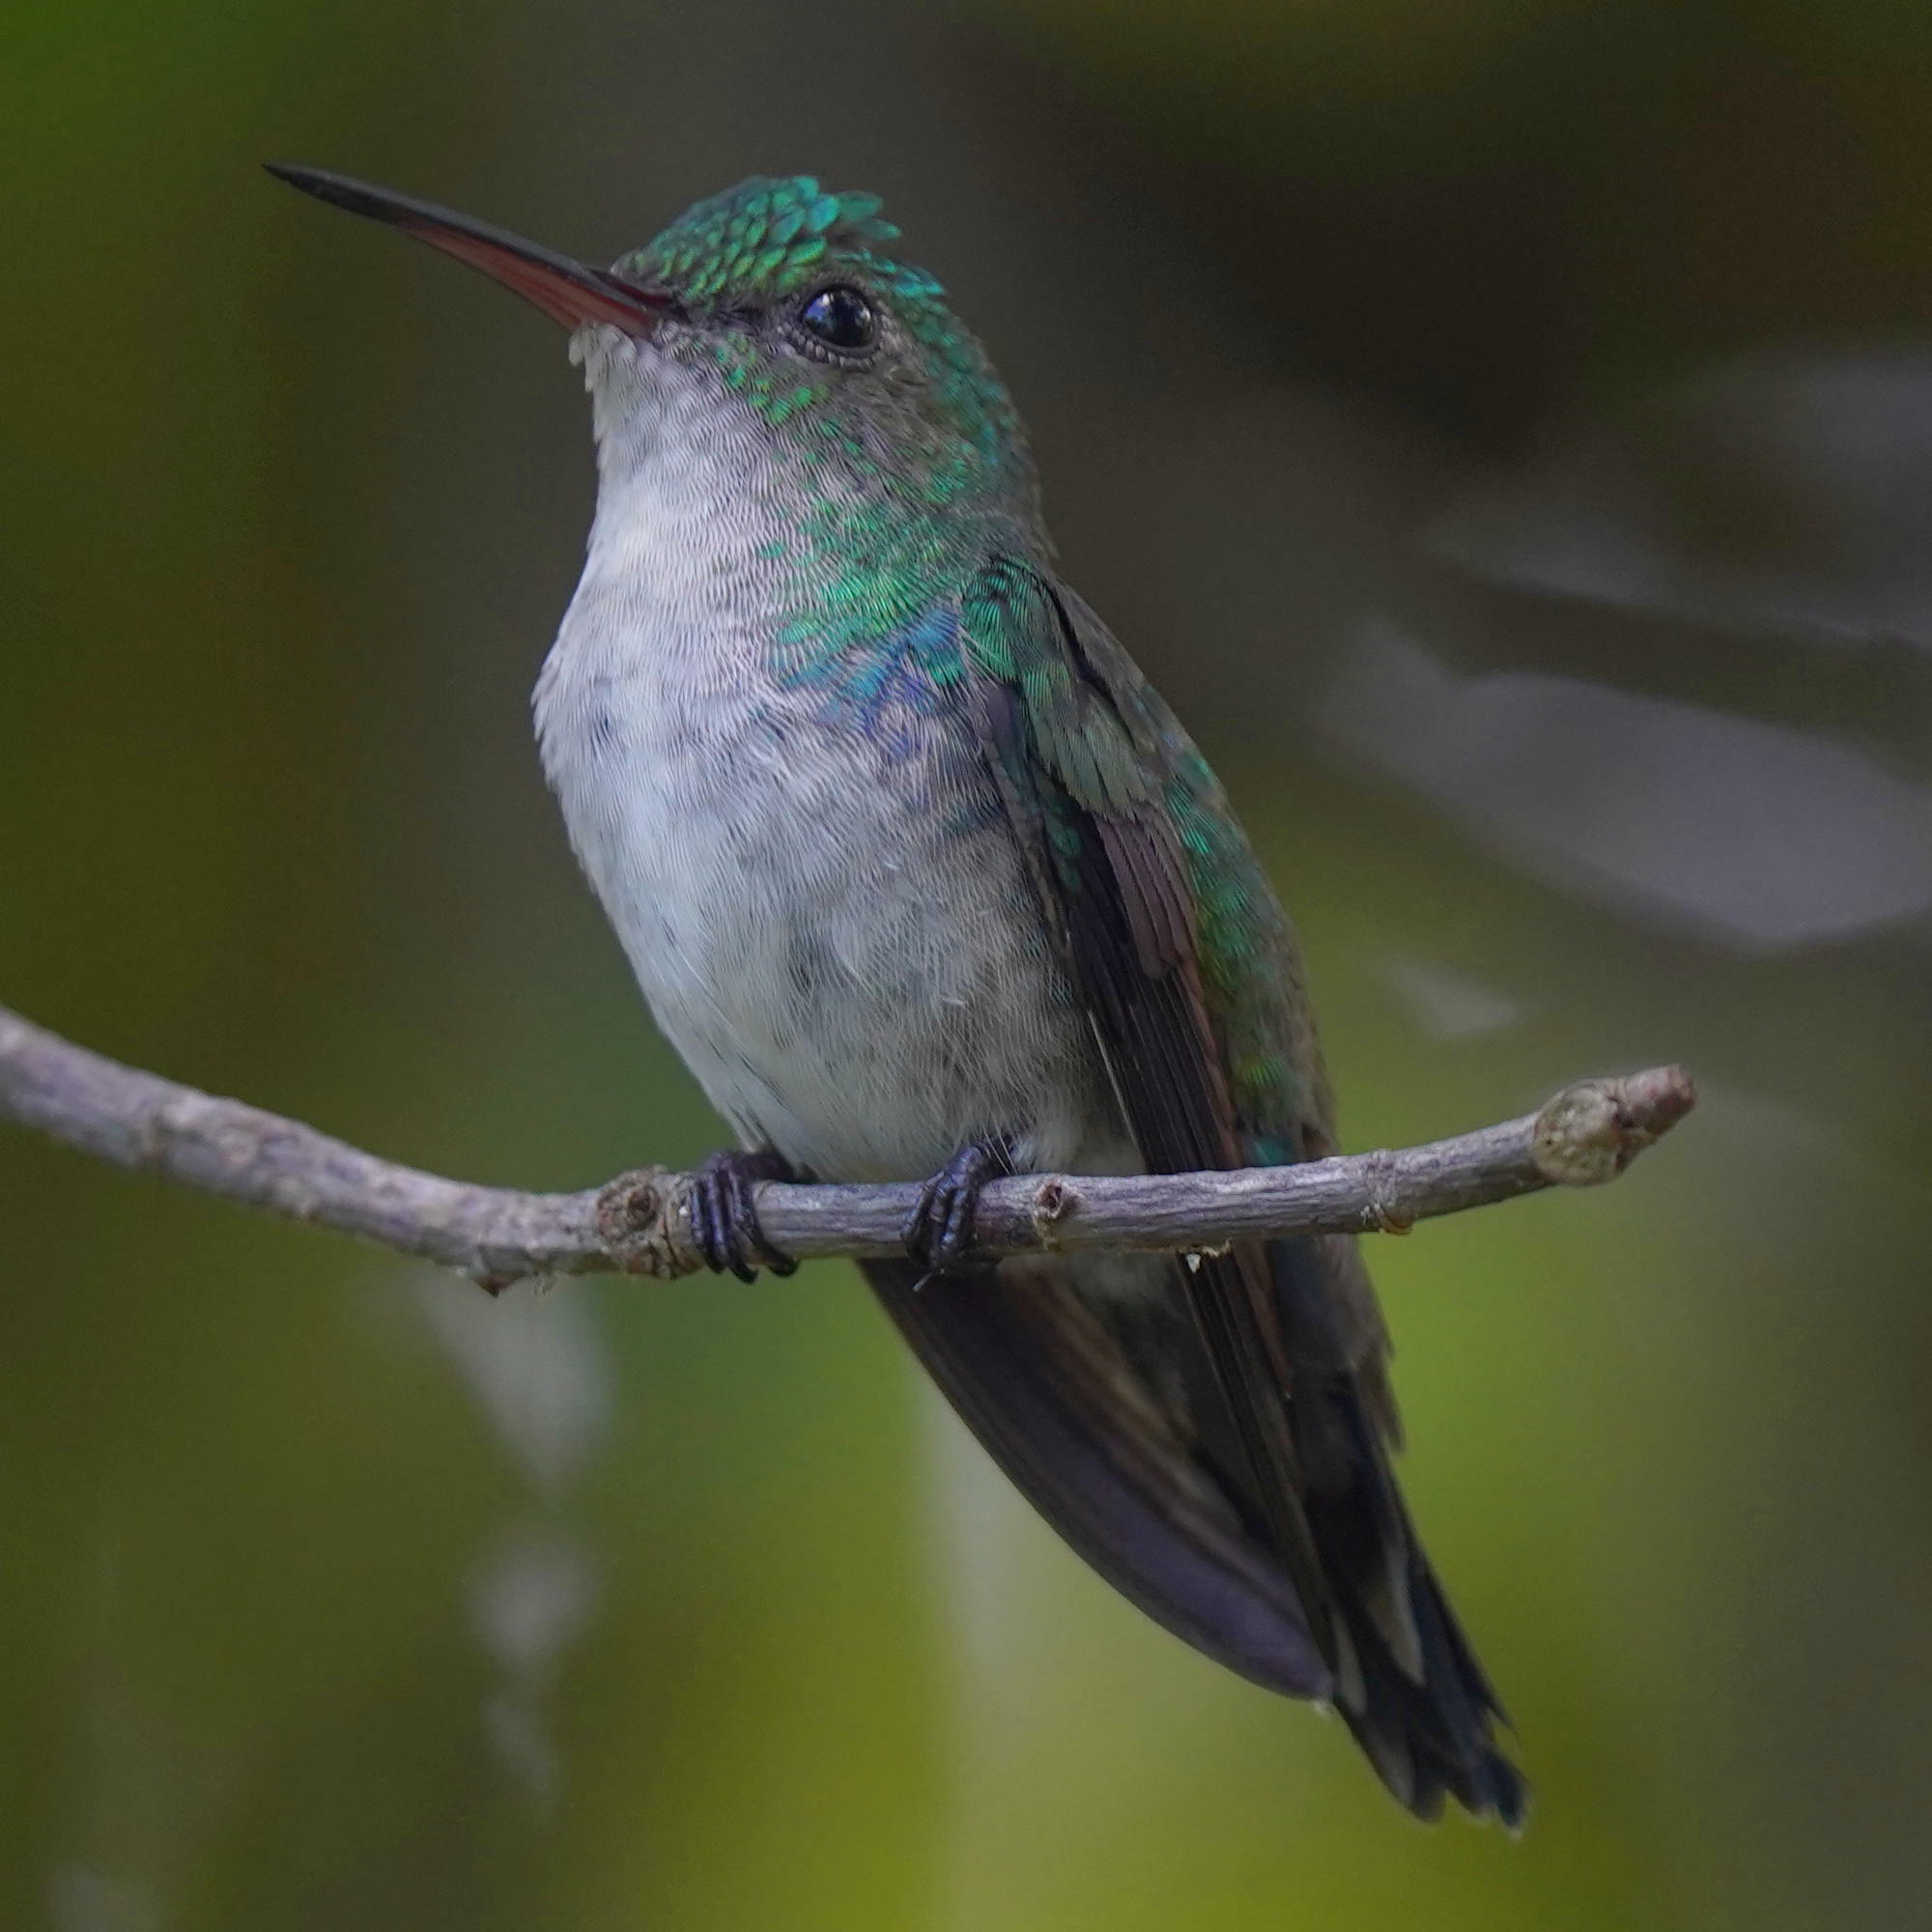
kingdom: Animalia
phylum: Chordata
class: Aves
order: Apodiformes
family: Trochilidae
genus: Chrysuronia
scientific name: Chrysuronia coeruleogularis
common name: Sapphire-throated hummingbird
